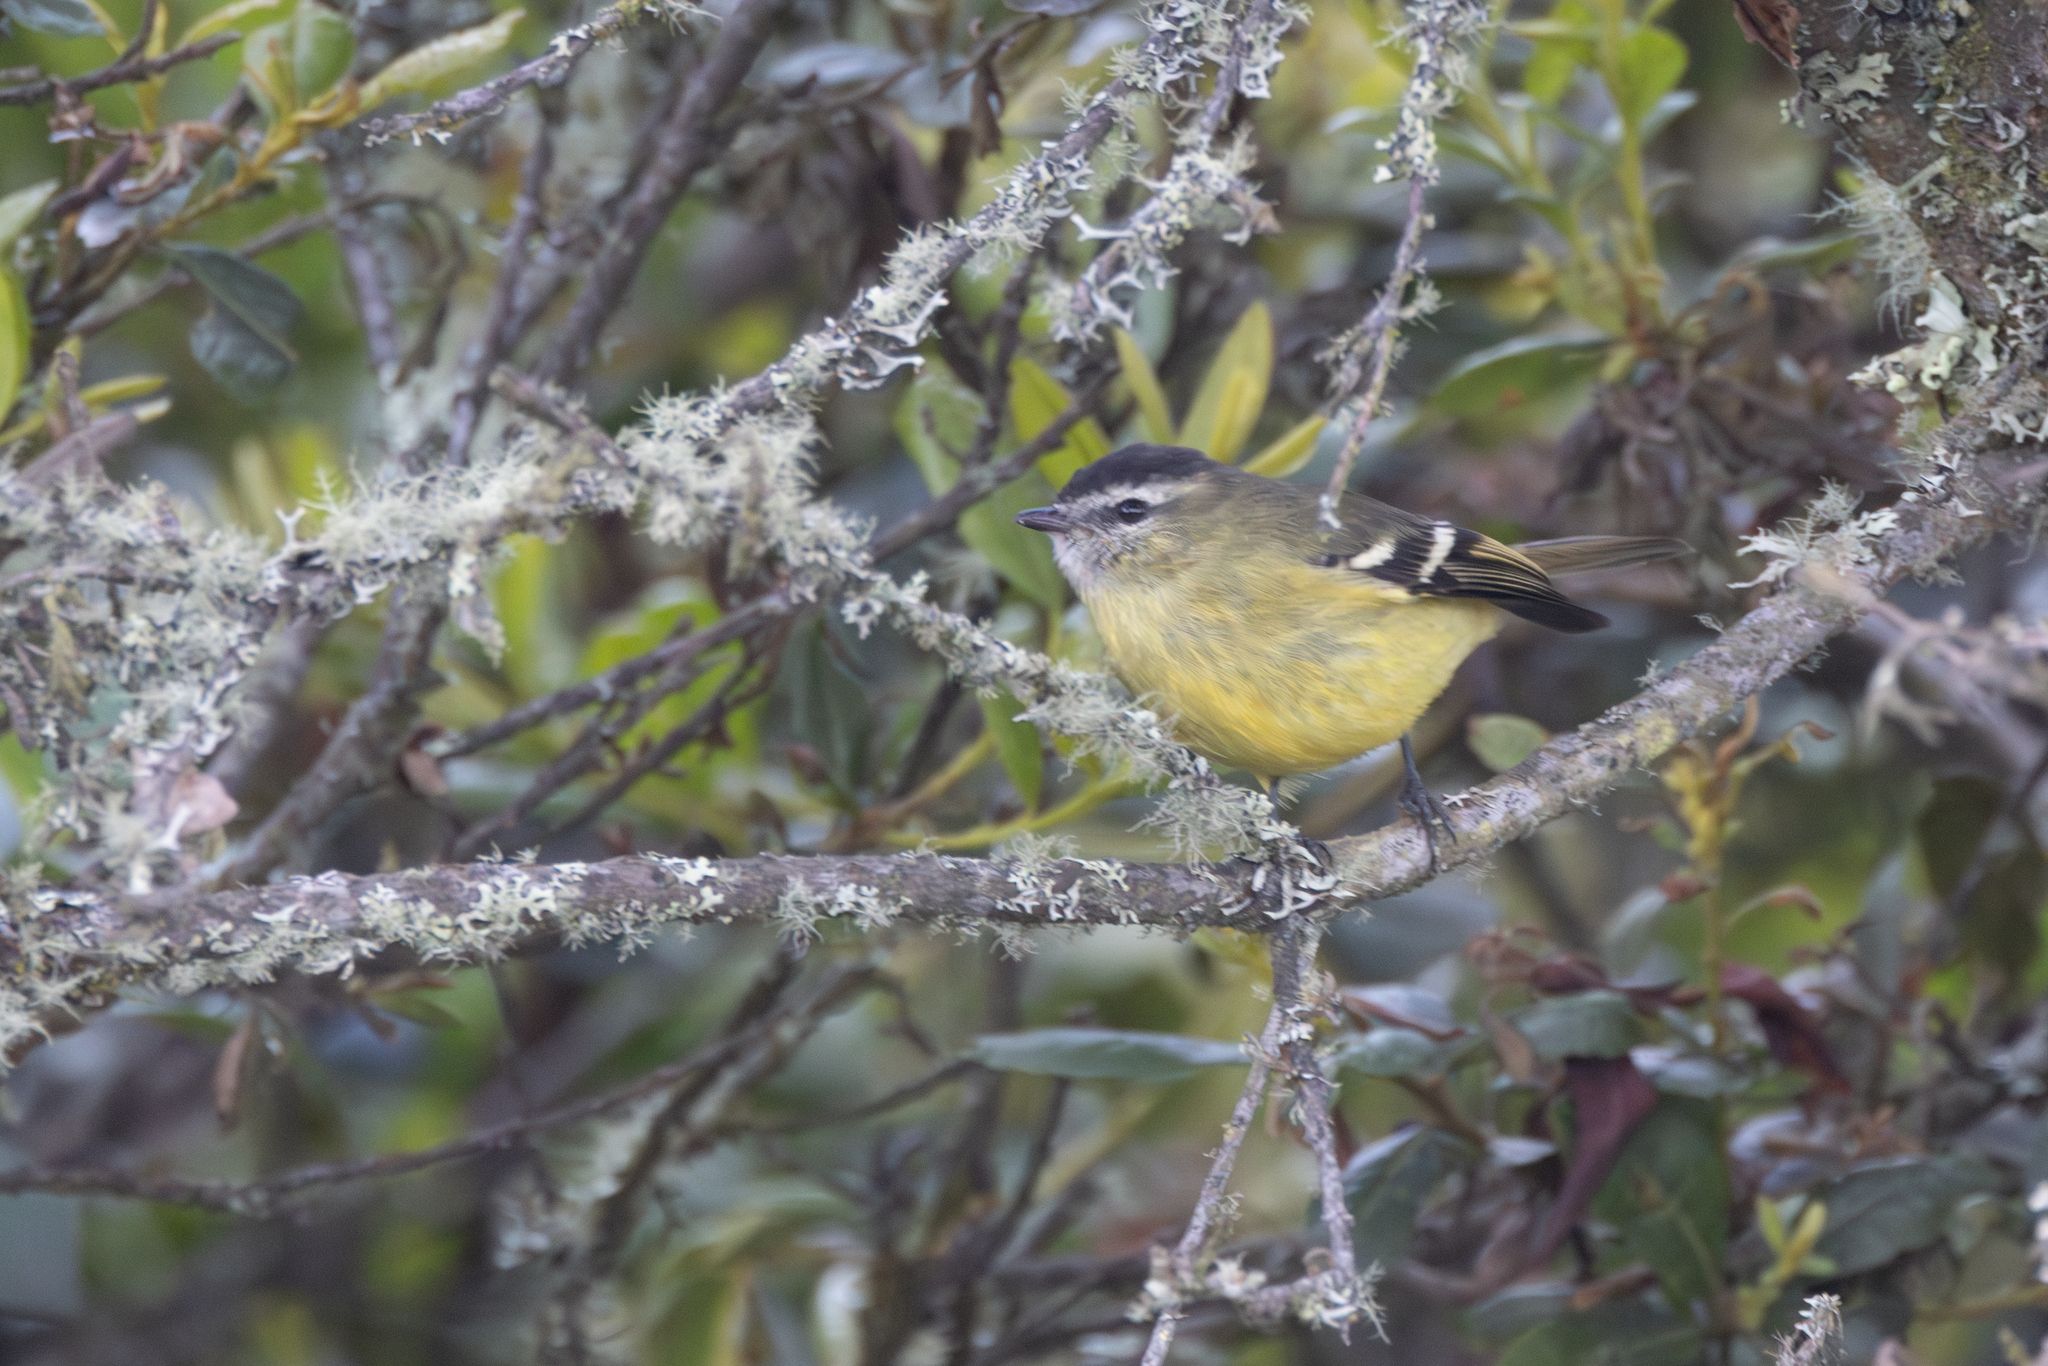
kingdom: Animalia
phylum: Chordata
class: Aves
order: Passeriformes
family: Tyrannidae
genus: Phyllomyias
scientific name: Phyllomyias nigrocapillus
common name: Black-capped tyrannulet
